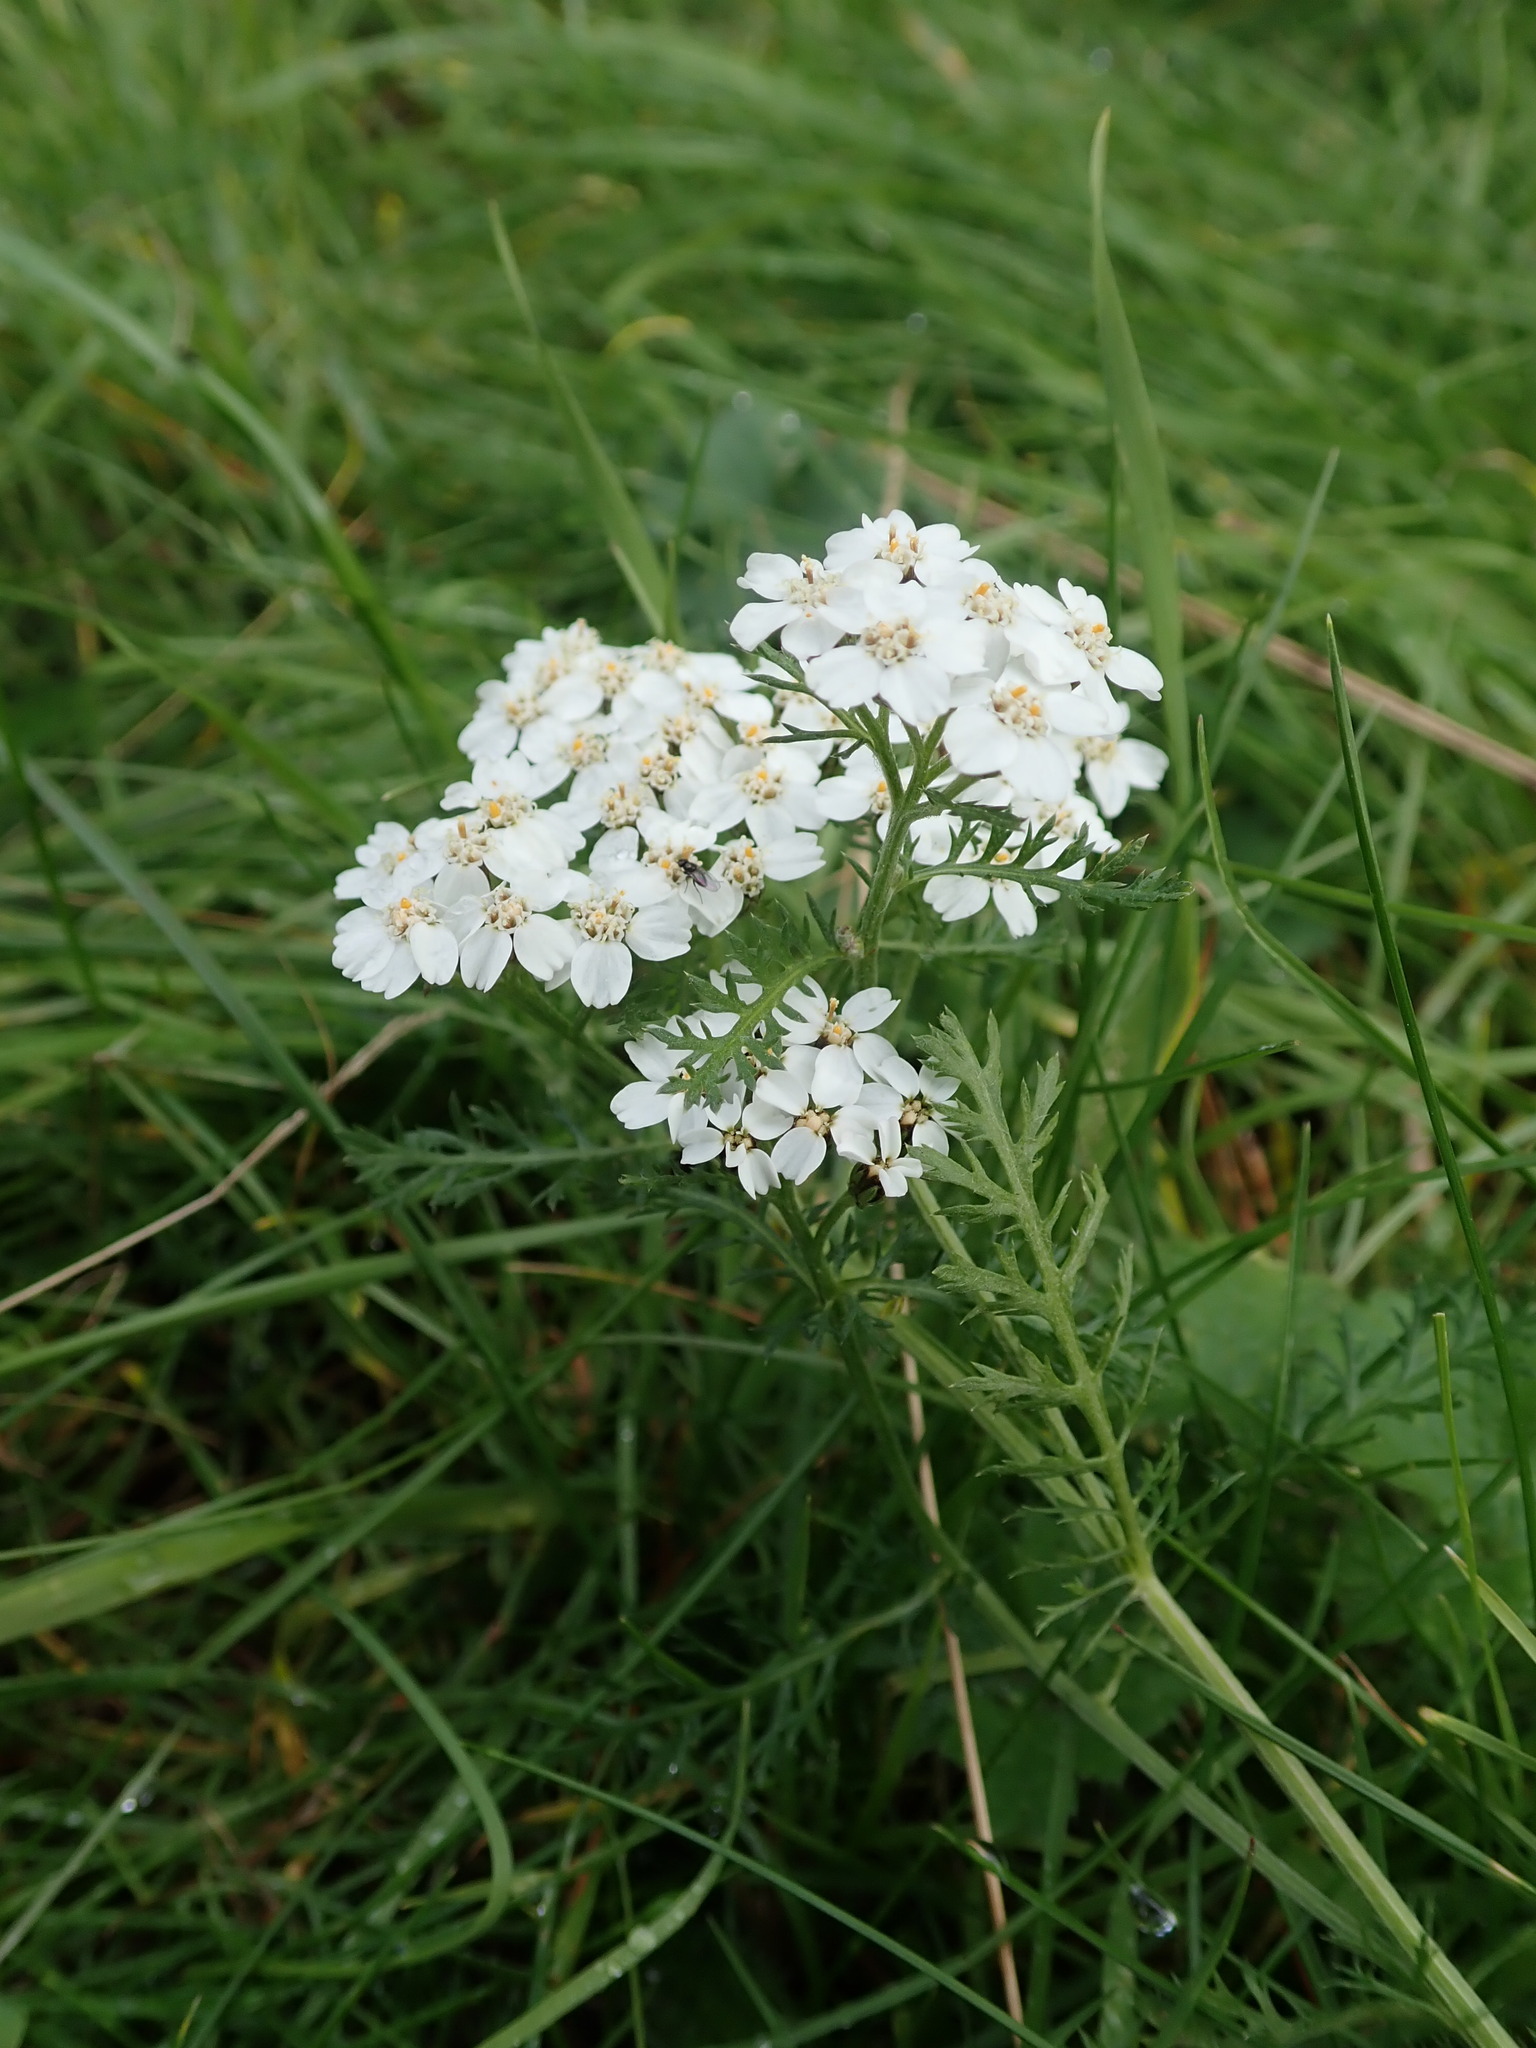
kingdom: Plantae
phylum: Tracheophyta
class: Magnoliopsida
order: Asterales
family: Asteraceae
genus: Achillea
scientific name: Achillea millefolium
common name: Yarrow
